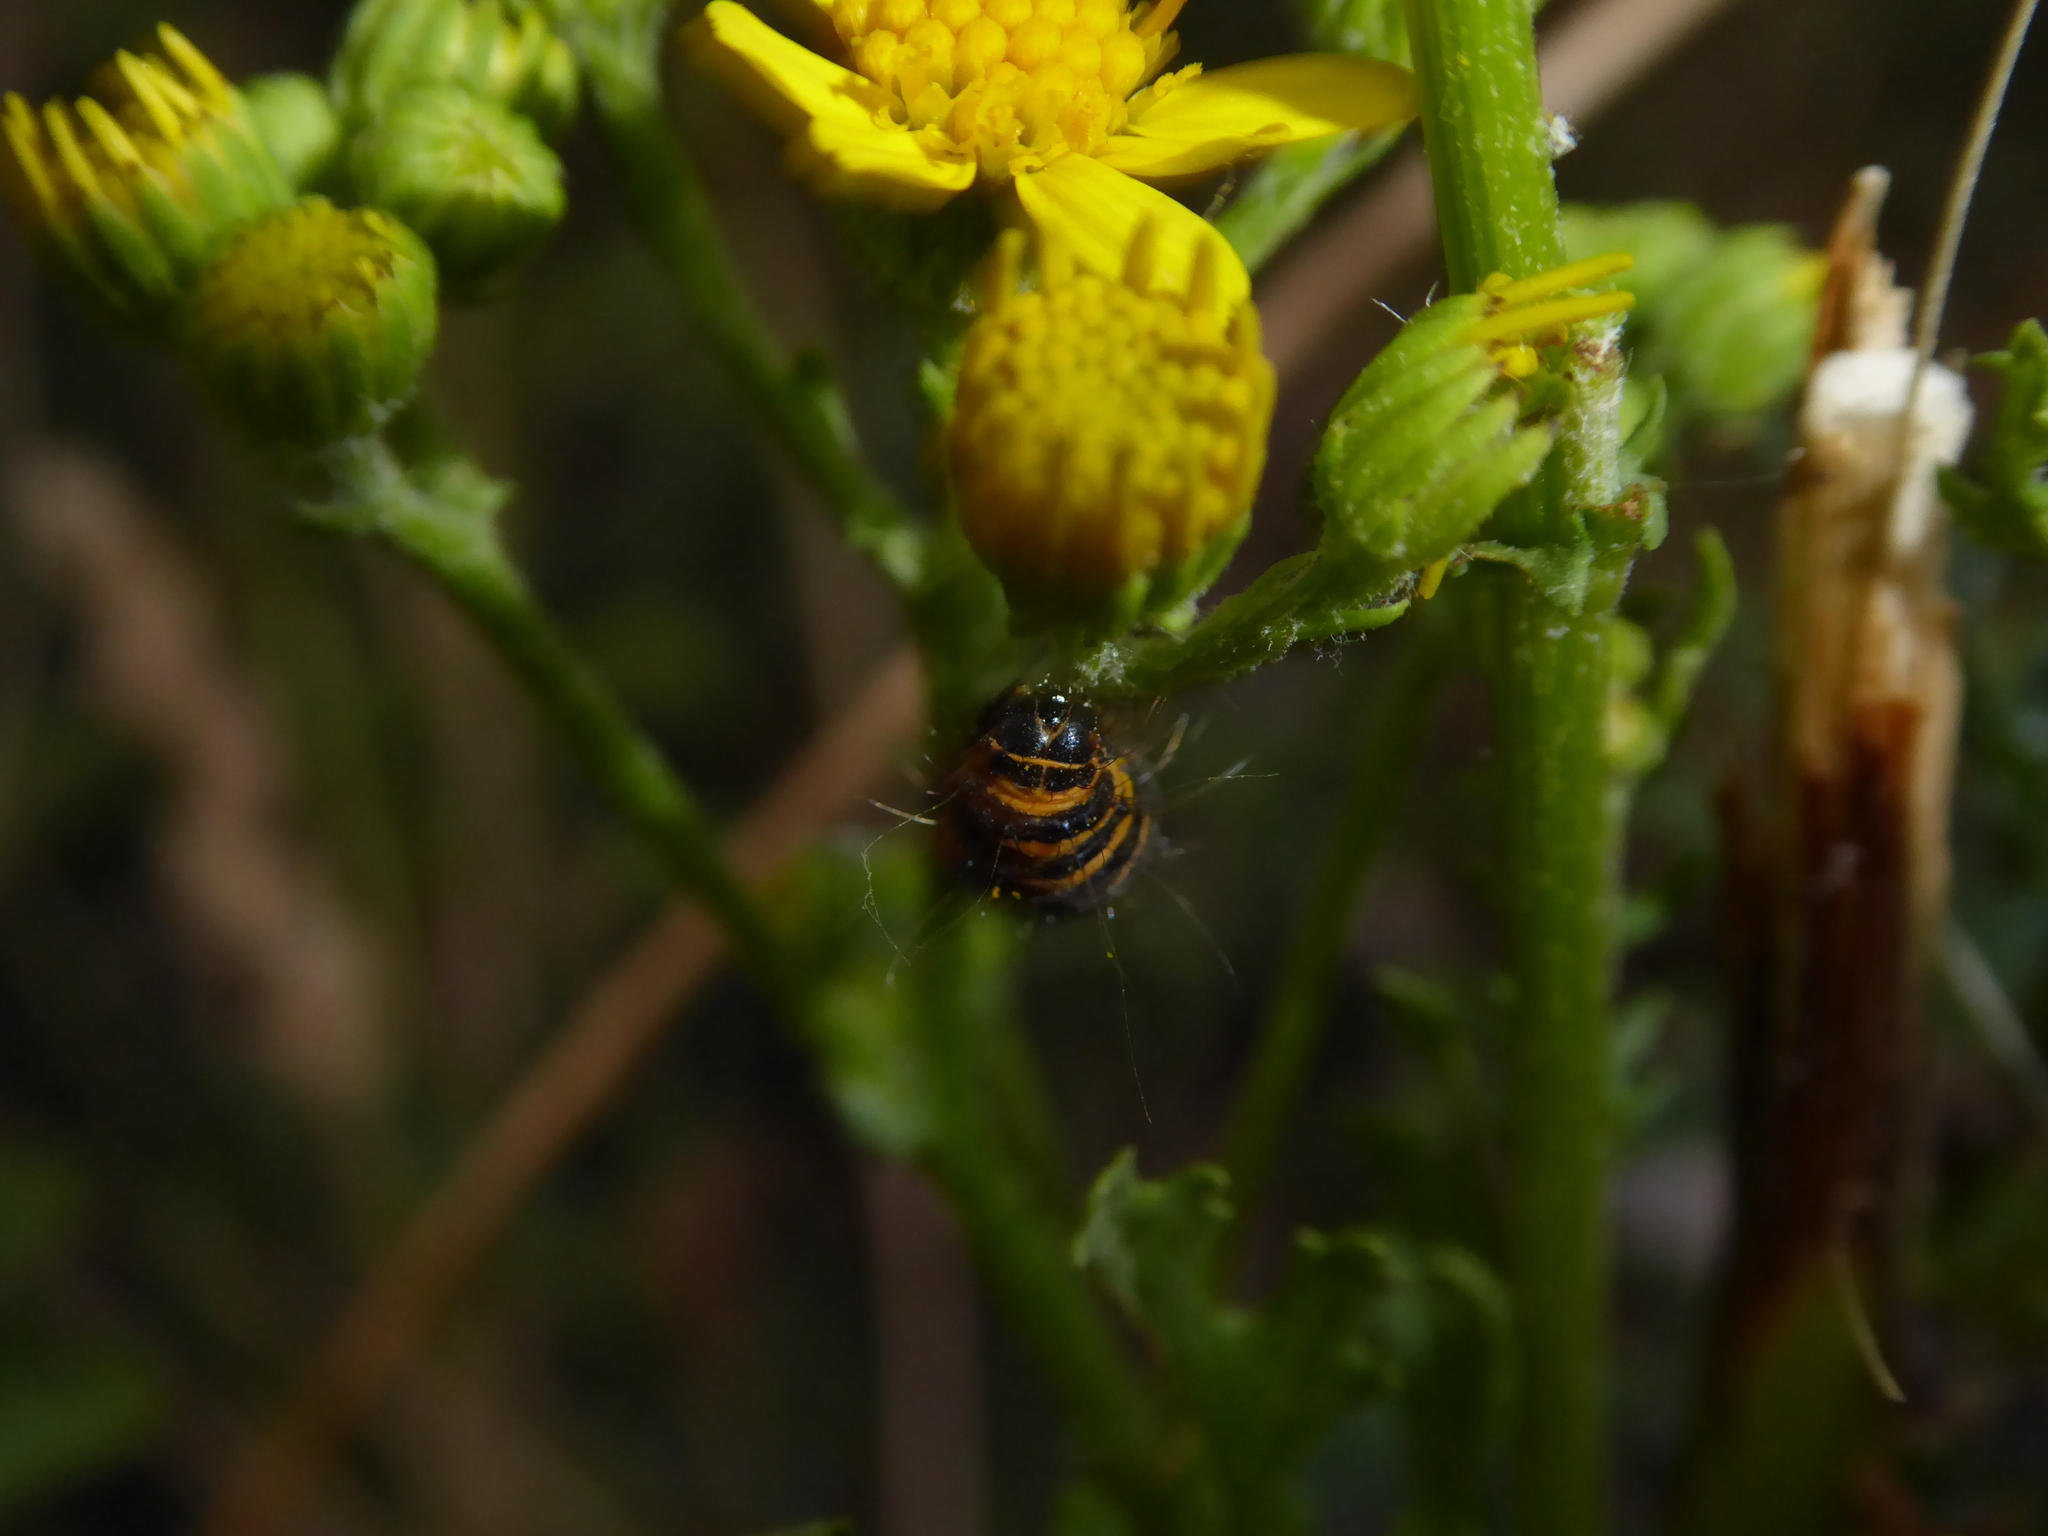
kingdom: Animalia
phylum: Arthropoda
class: Insecta
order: Lepidoptera
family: Erebidae
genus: Tyria
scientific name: Tyria jacobaeae
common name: Cinnabar
